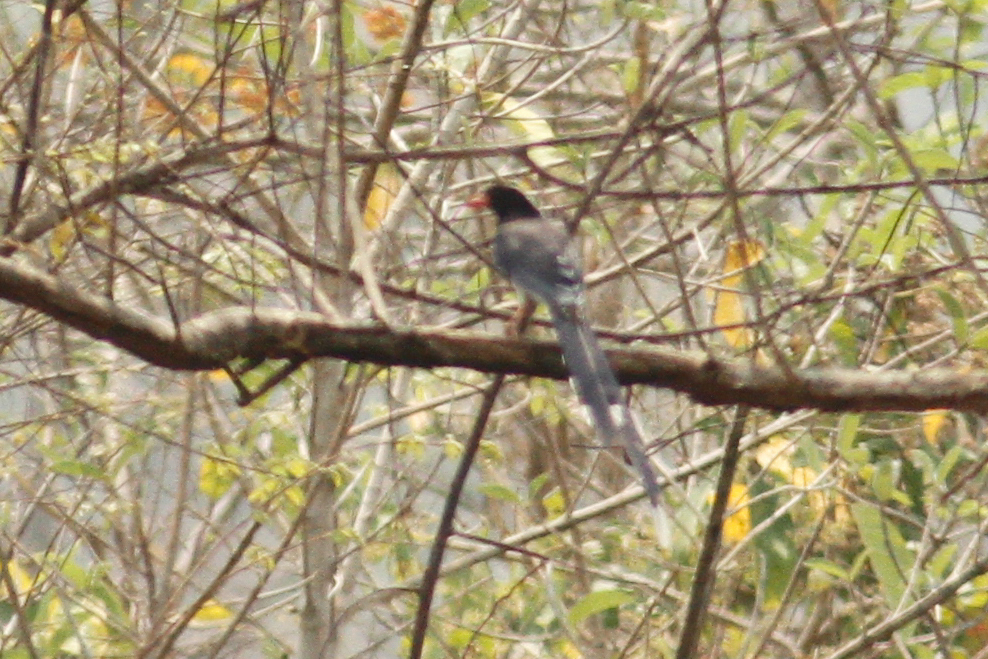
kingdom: Animalia
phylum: Chordata
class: Aves
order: Passeriformes
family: Corvidae
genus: Urocissa
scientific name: Urocissa erythroryncha
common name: Red-billed blue magpie
